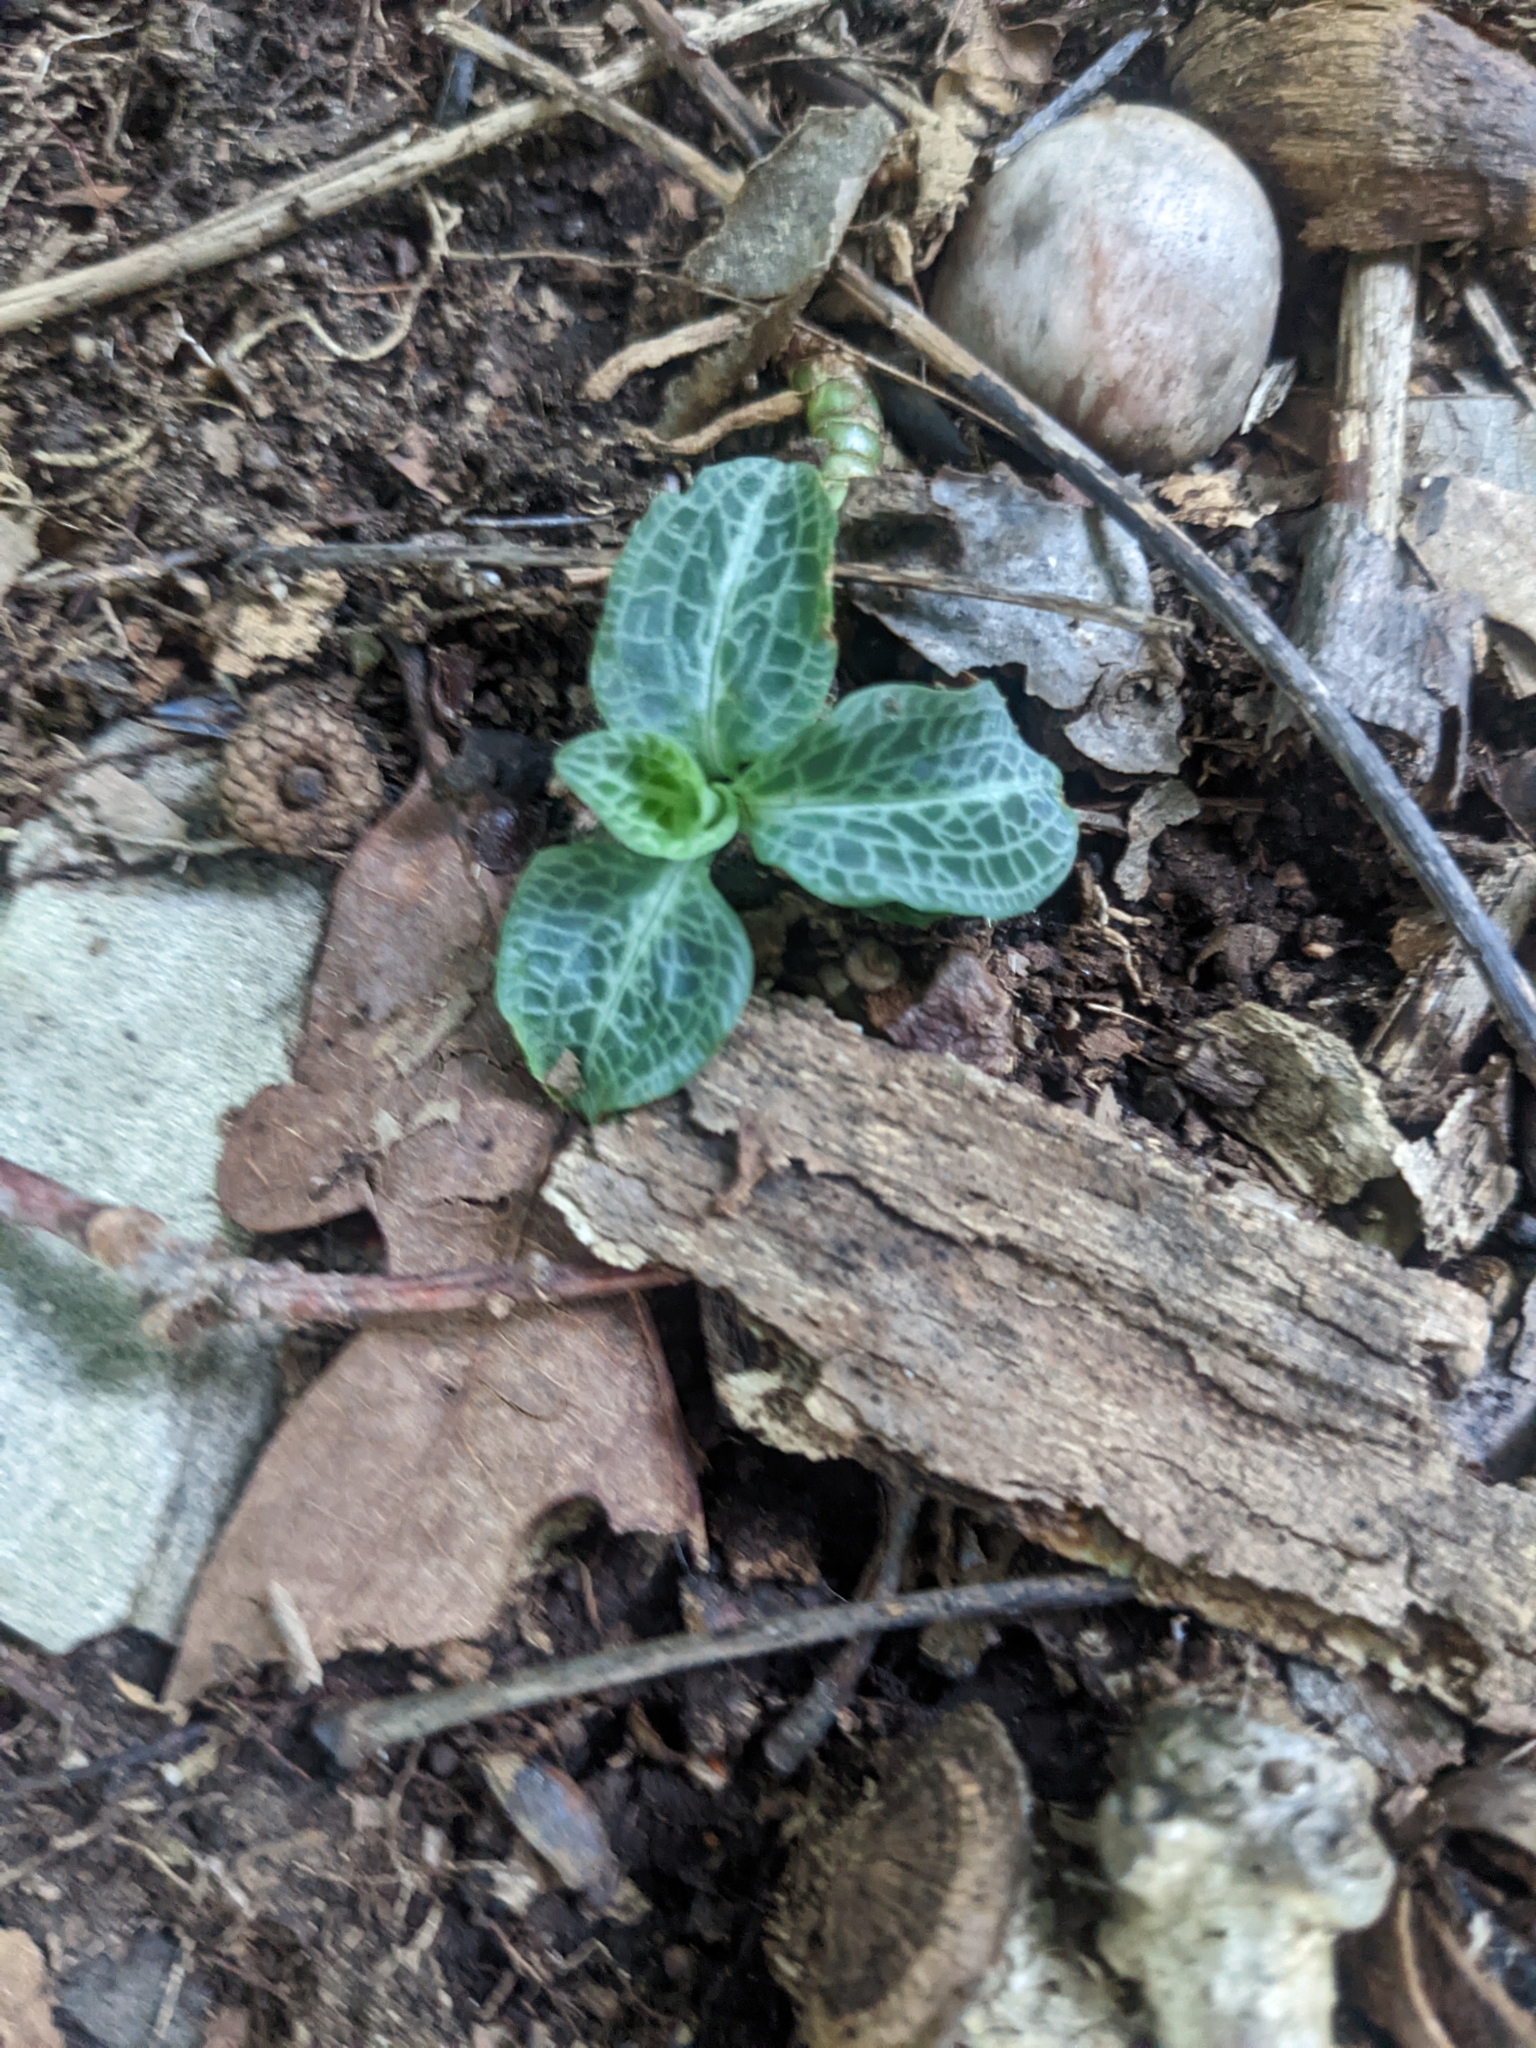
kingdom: Plantae
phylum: Tracheophyta
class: Liliopsida
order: Asparagales
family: Orchidaceae
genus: Goodyera
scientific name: Goodyera pubescens
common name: Downy rattlesnake-plantain
